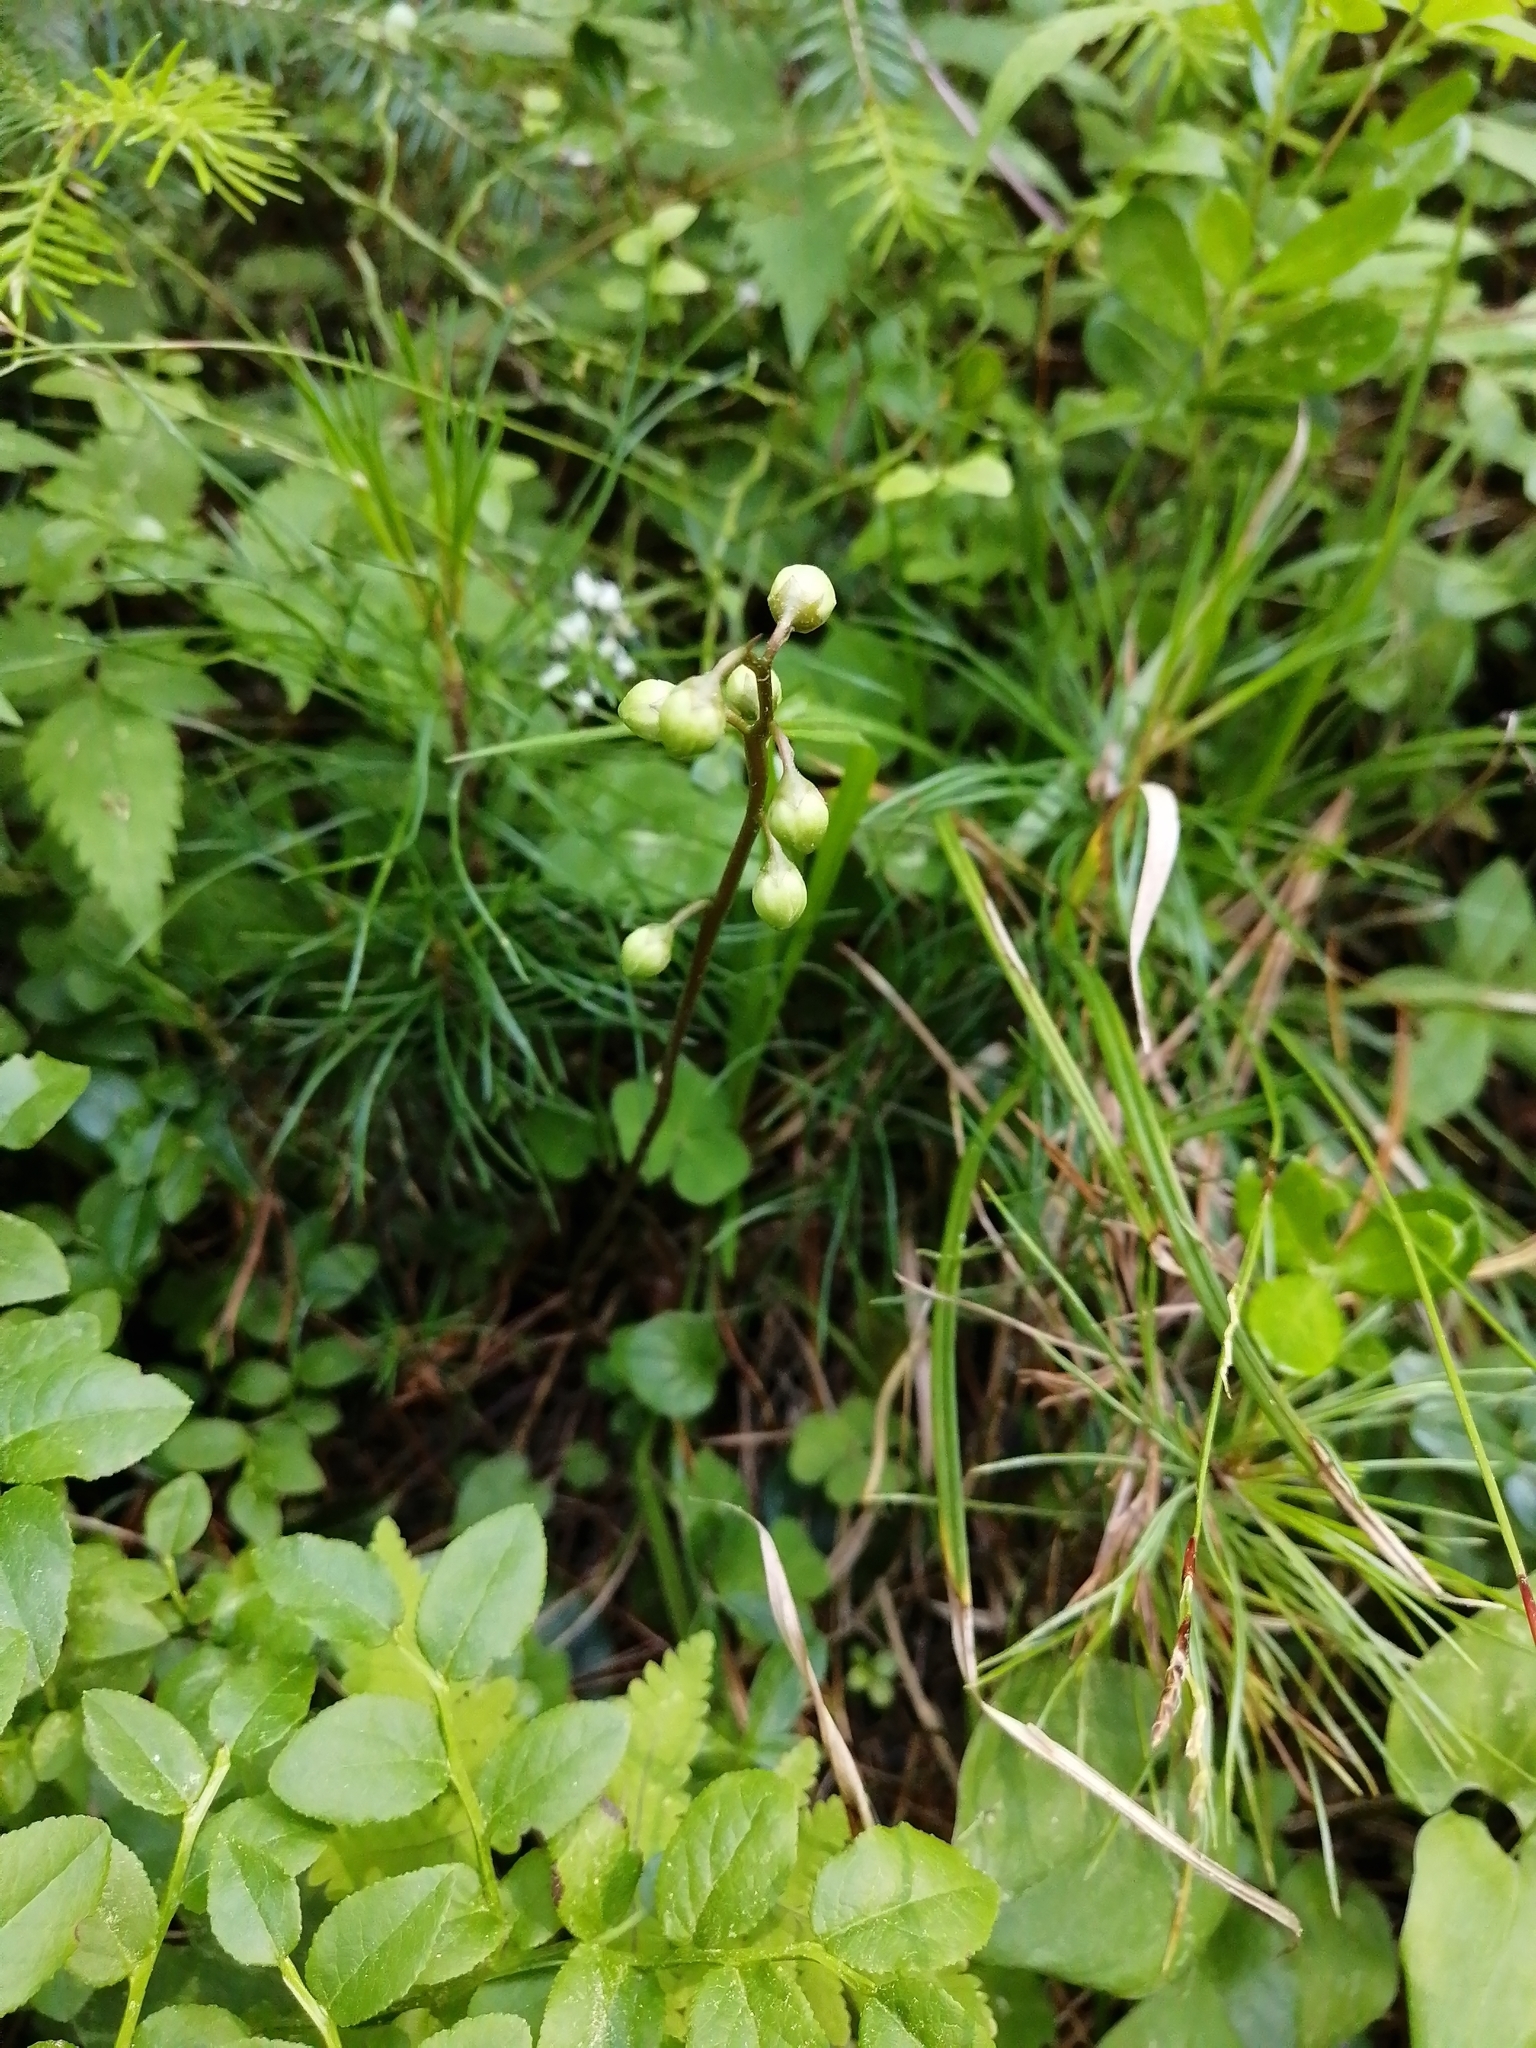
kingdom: Plantae
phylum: Tracheophyta
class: Magnoliopsida
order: Ericales
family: Ericaceae
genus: Pyrola
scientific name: Pyrola chlorantha
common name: Green wintergreen
